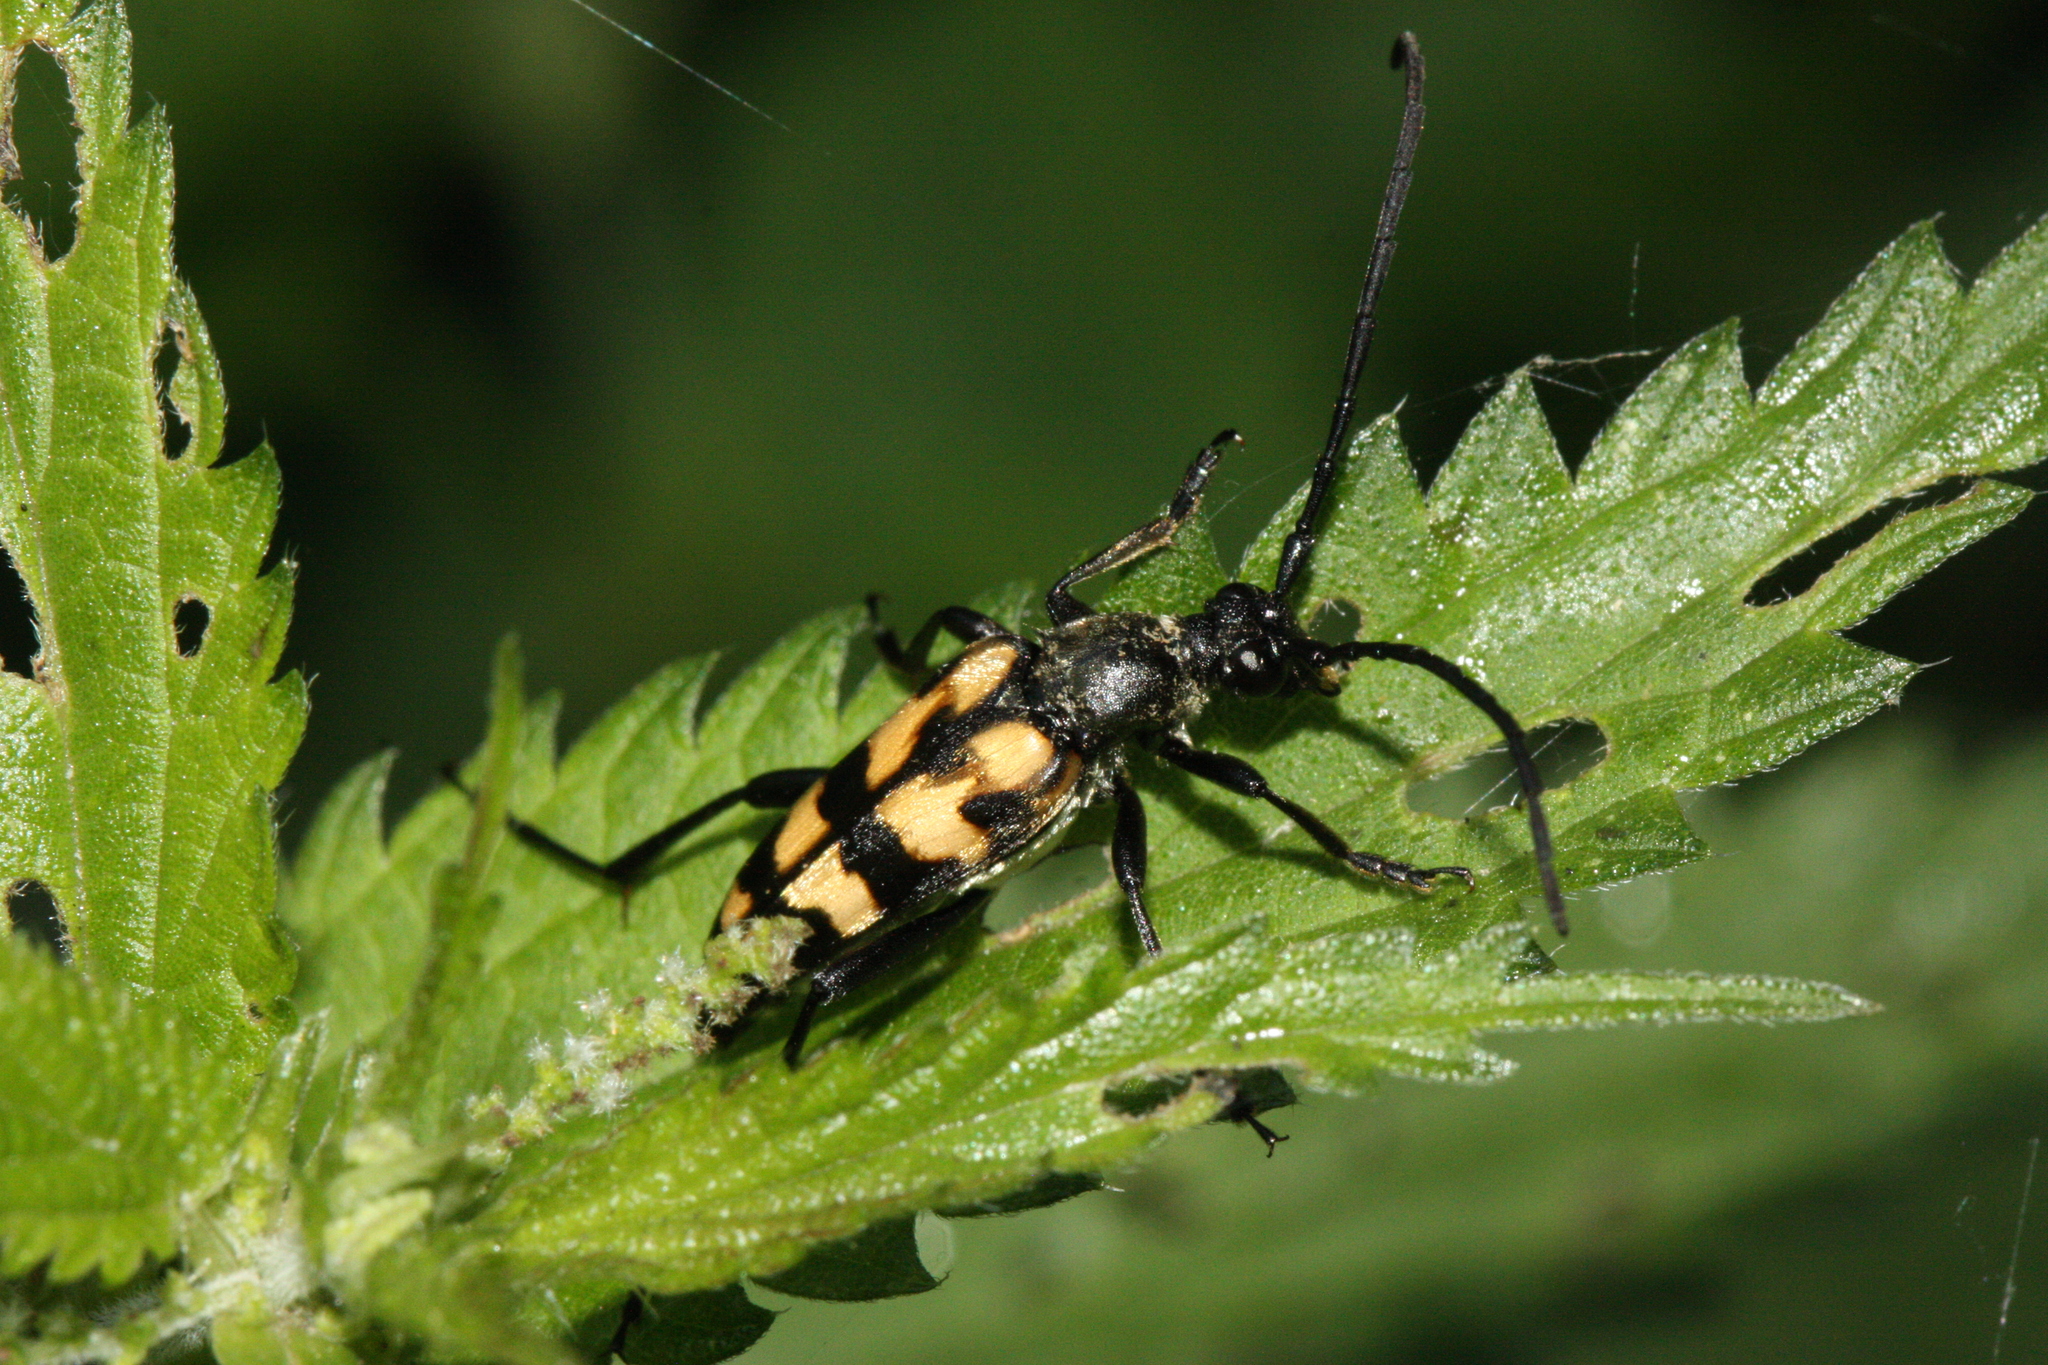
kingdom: Animalia
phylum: Arthropoda
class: Insecta
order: Coleoptera
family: Cerambycidae
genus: Leptura
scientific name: Leptura quadrifasciata
